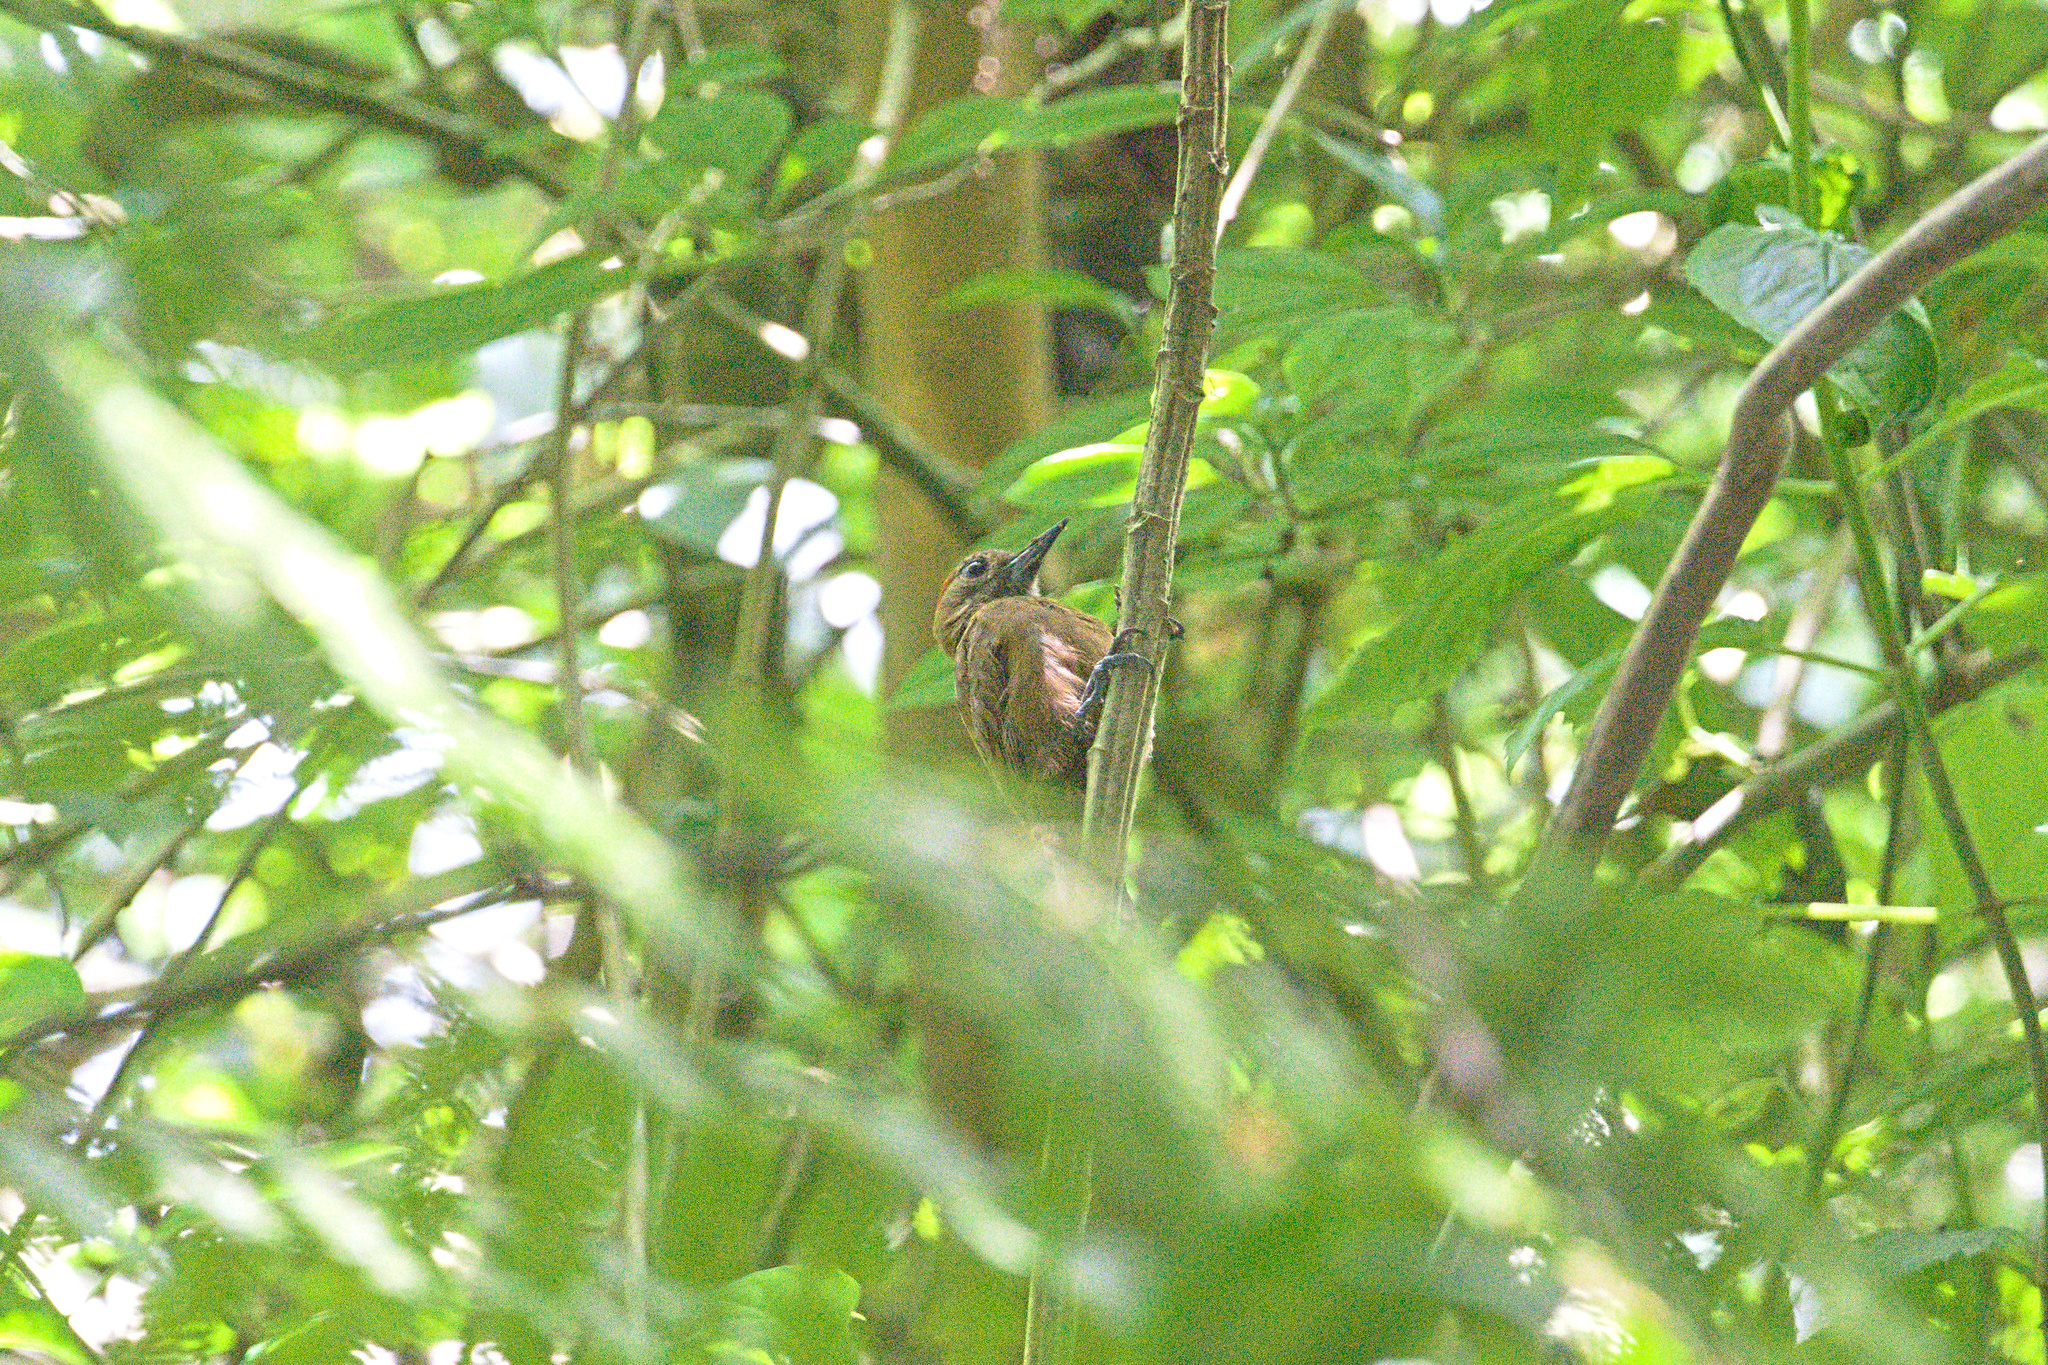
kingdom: Animalia
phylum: Chordata
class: Aves
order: Piciformes
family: Picidae
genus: Leuconotopicus
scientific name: Leuconotopicus fumigatus
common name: Smoky-brown woodpecker
